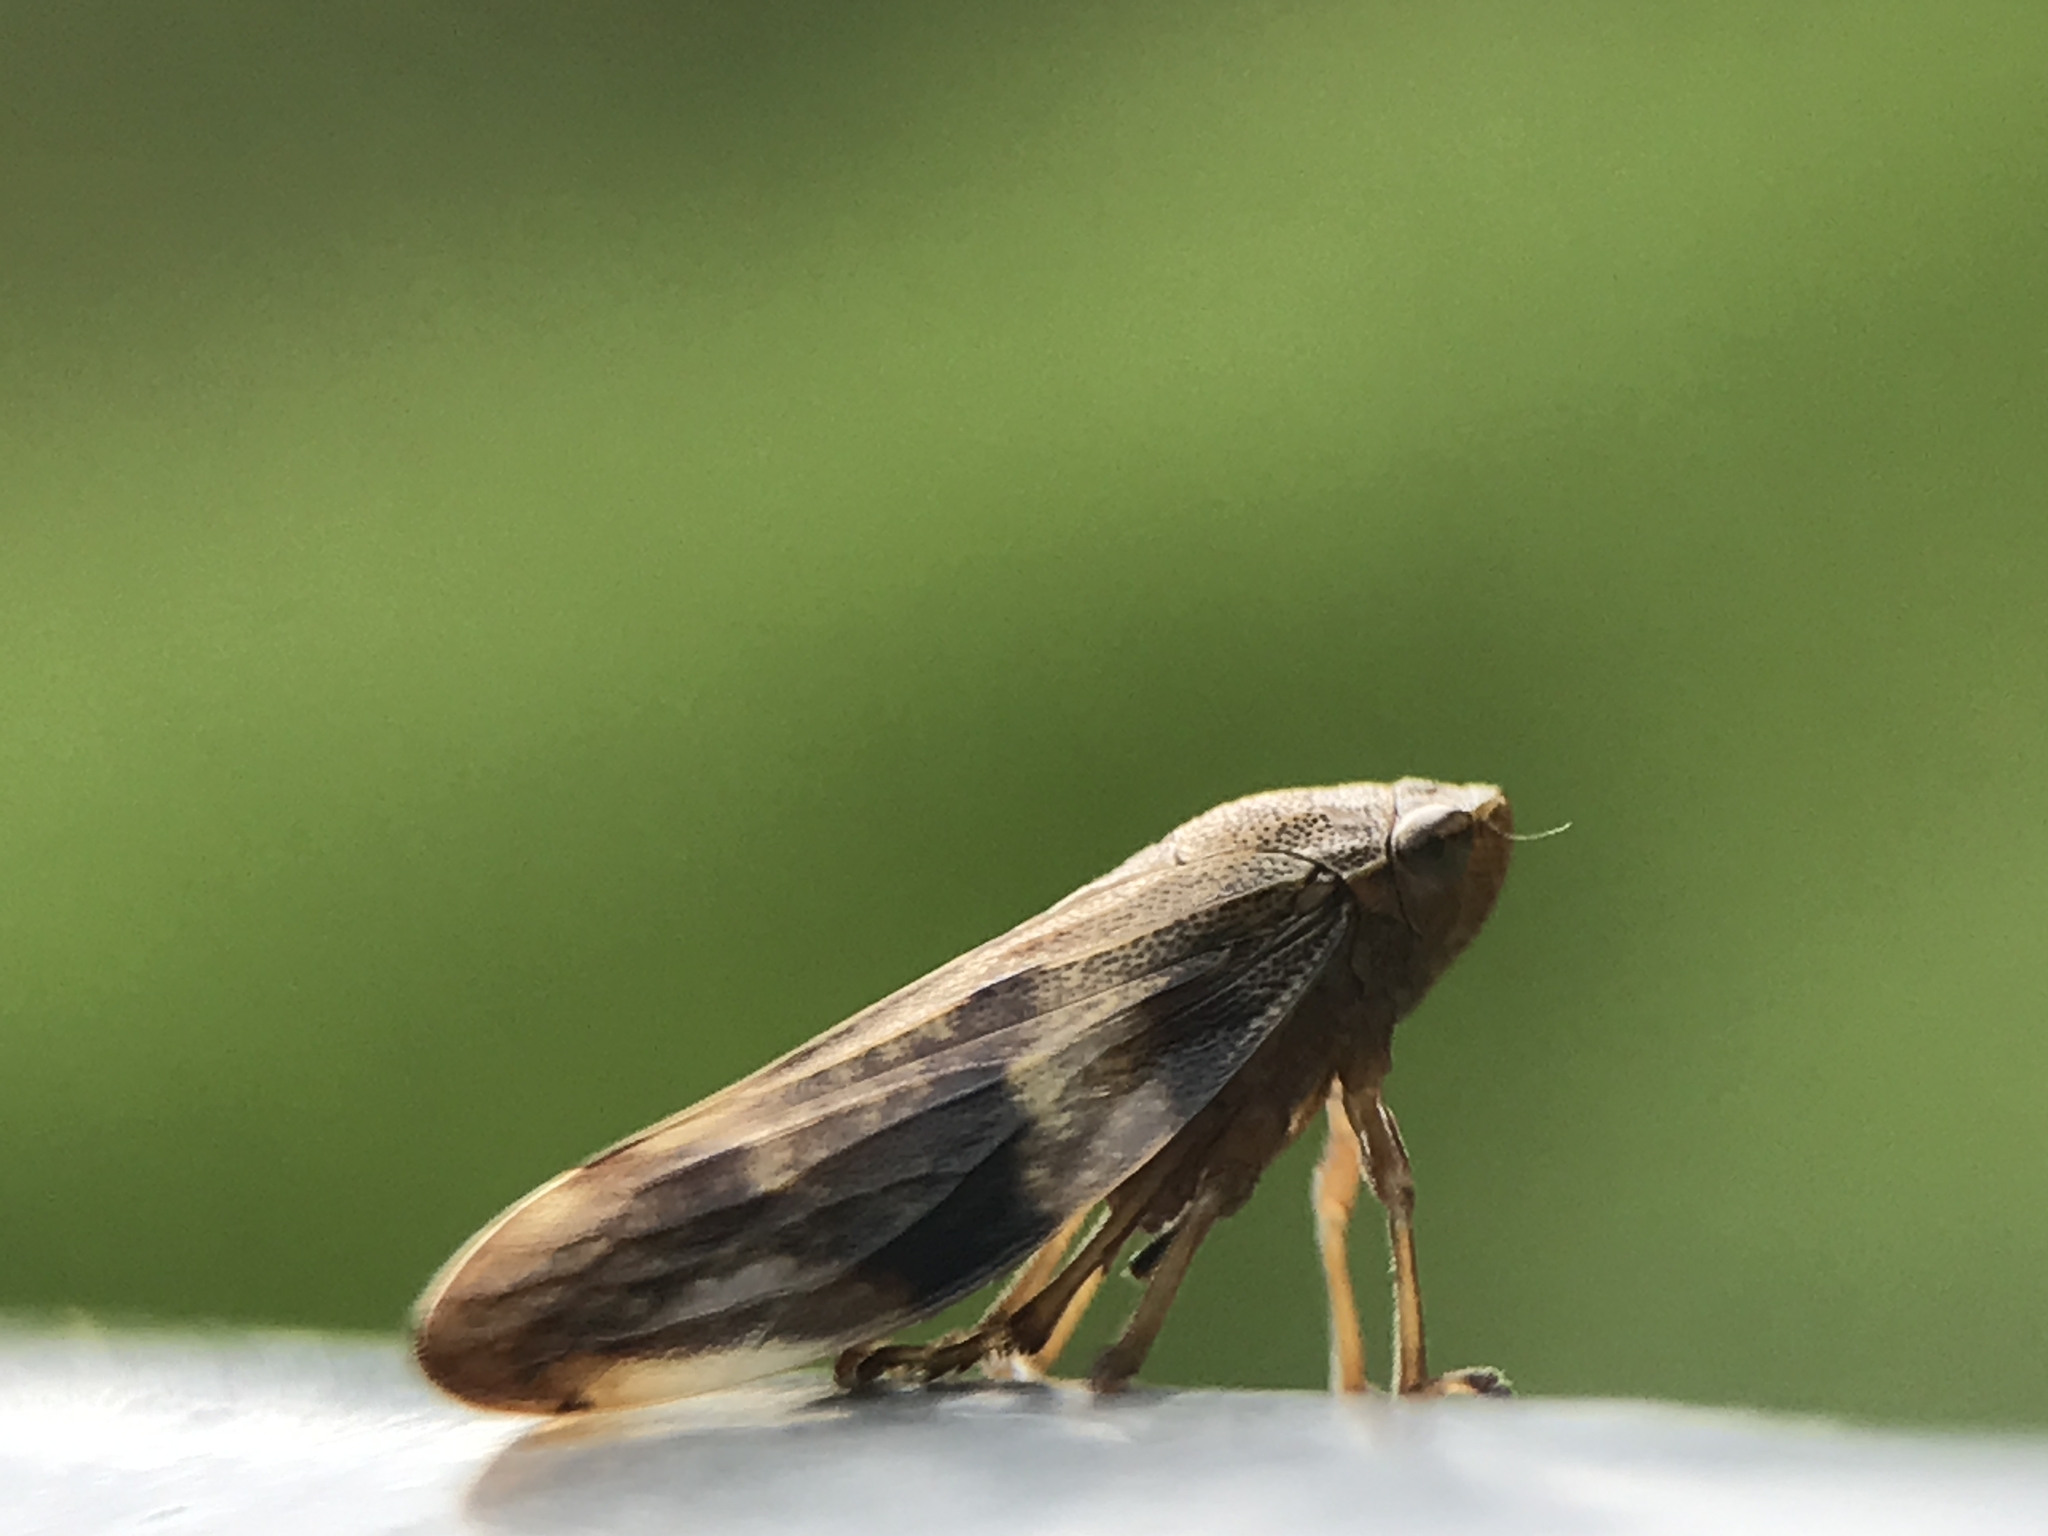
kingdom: Animalia
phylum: Arthropoda
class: Insecta
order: Hemiptera
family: Aphrophoridae
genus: Aphrophora
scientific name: Aphrophora alni
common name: European alder spittlebug
